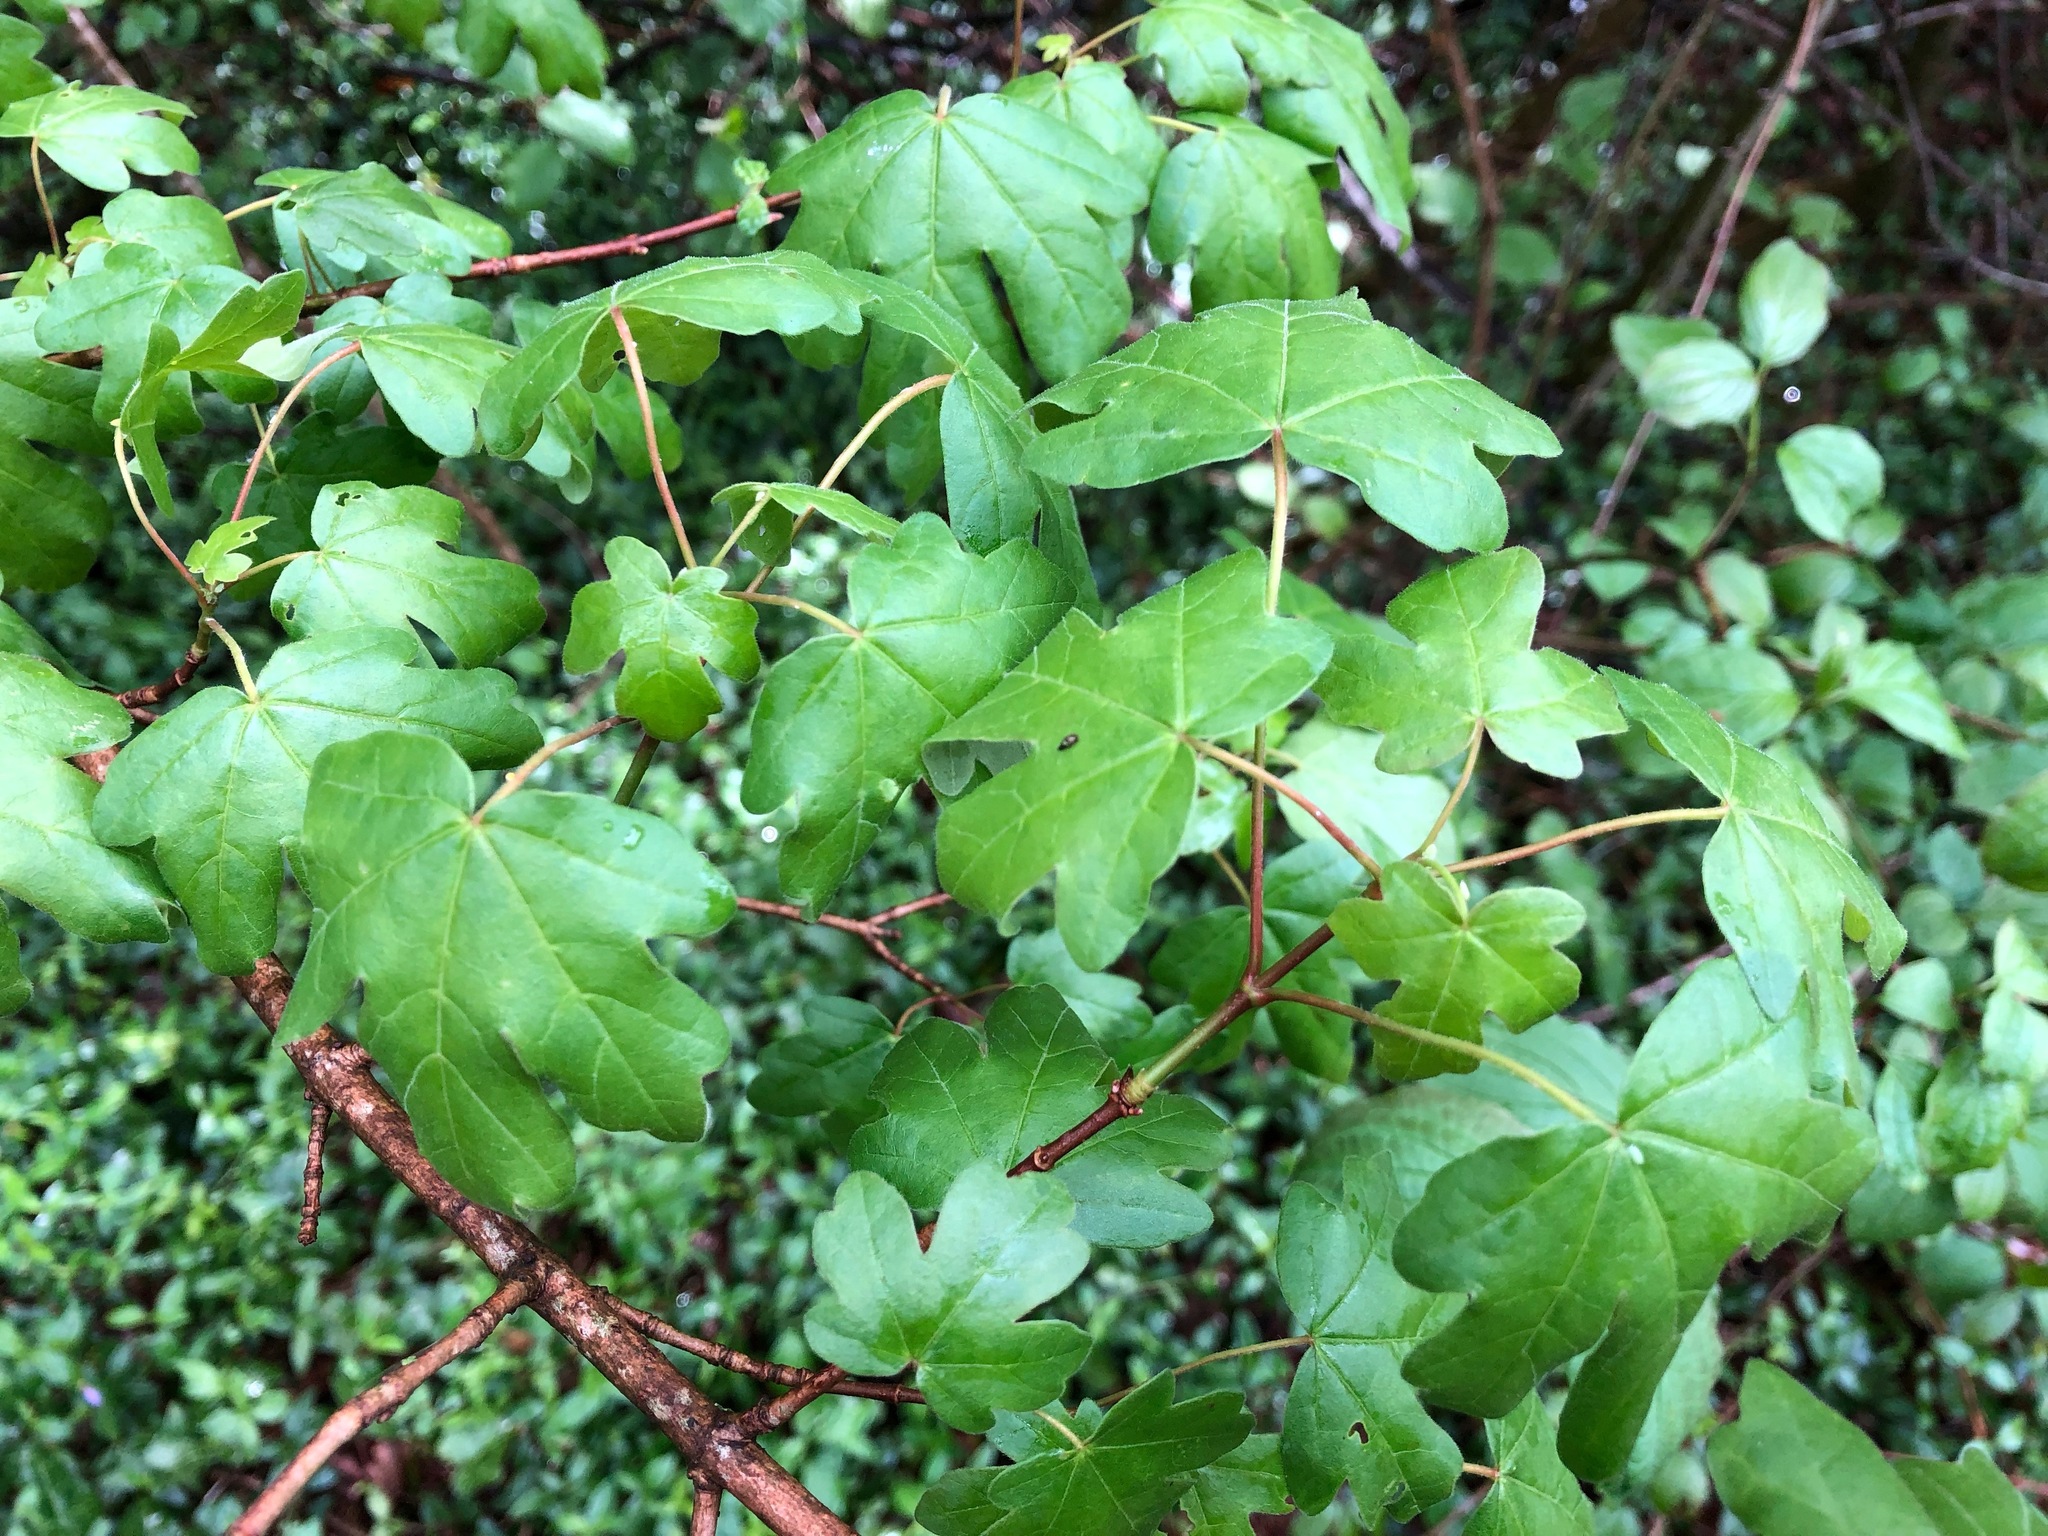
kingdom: Plantae
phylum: Tracheophyta
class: Magnoliopsida
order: Sapindales
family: Sapindaceae
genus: Acer
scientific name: Acer campestre
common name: Field maple
